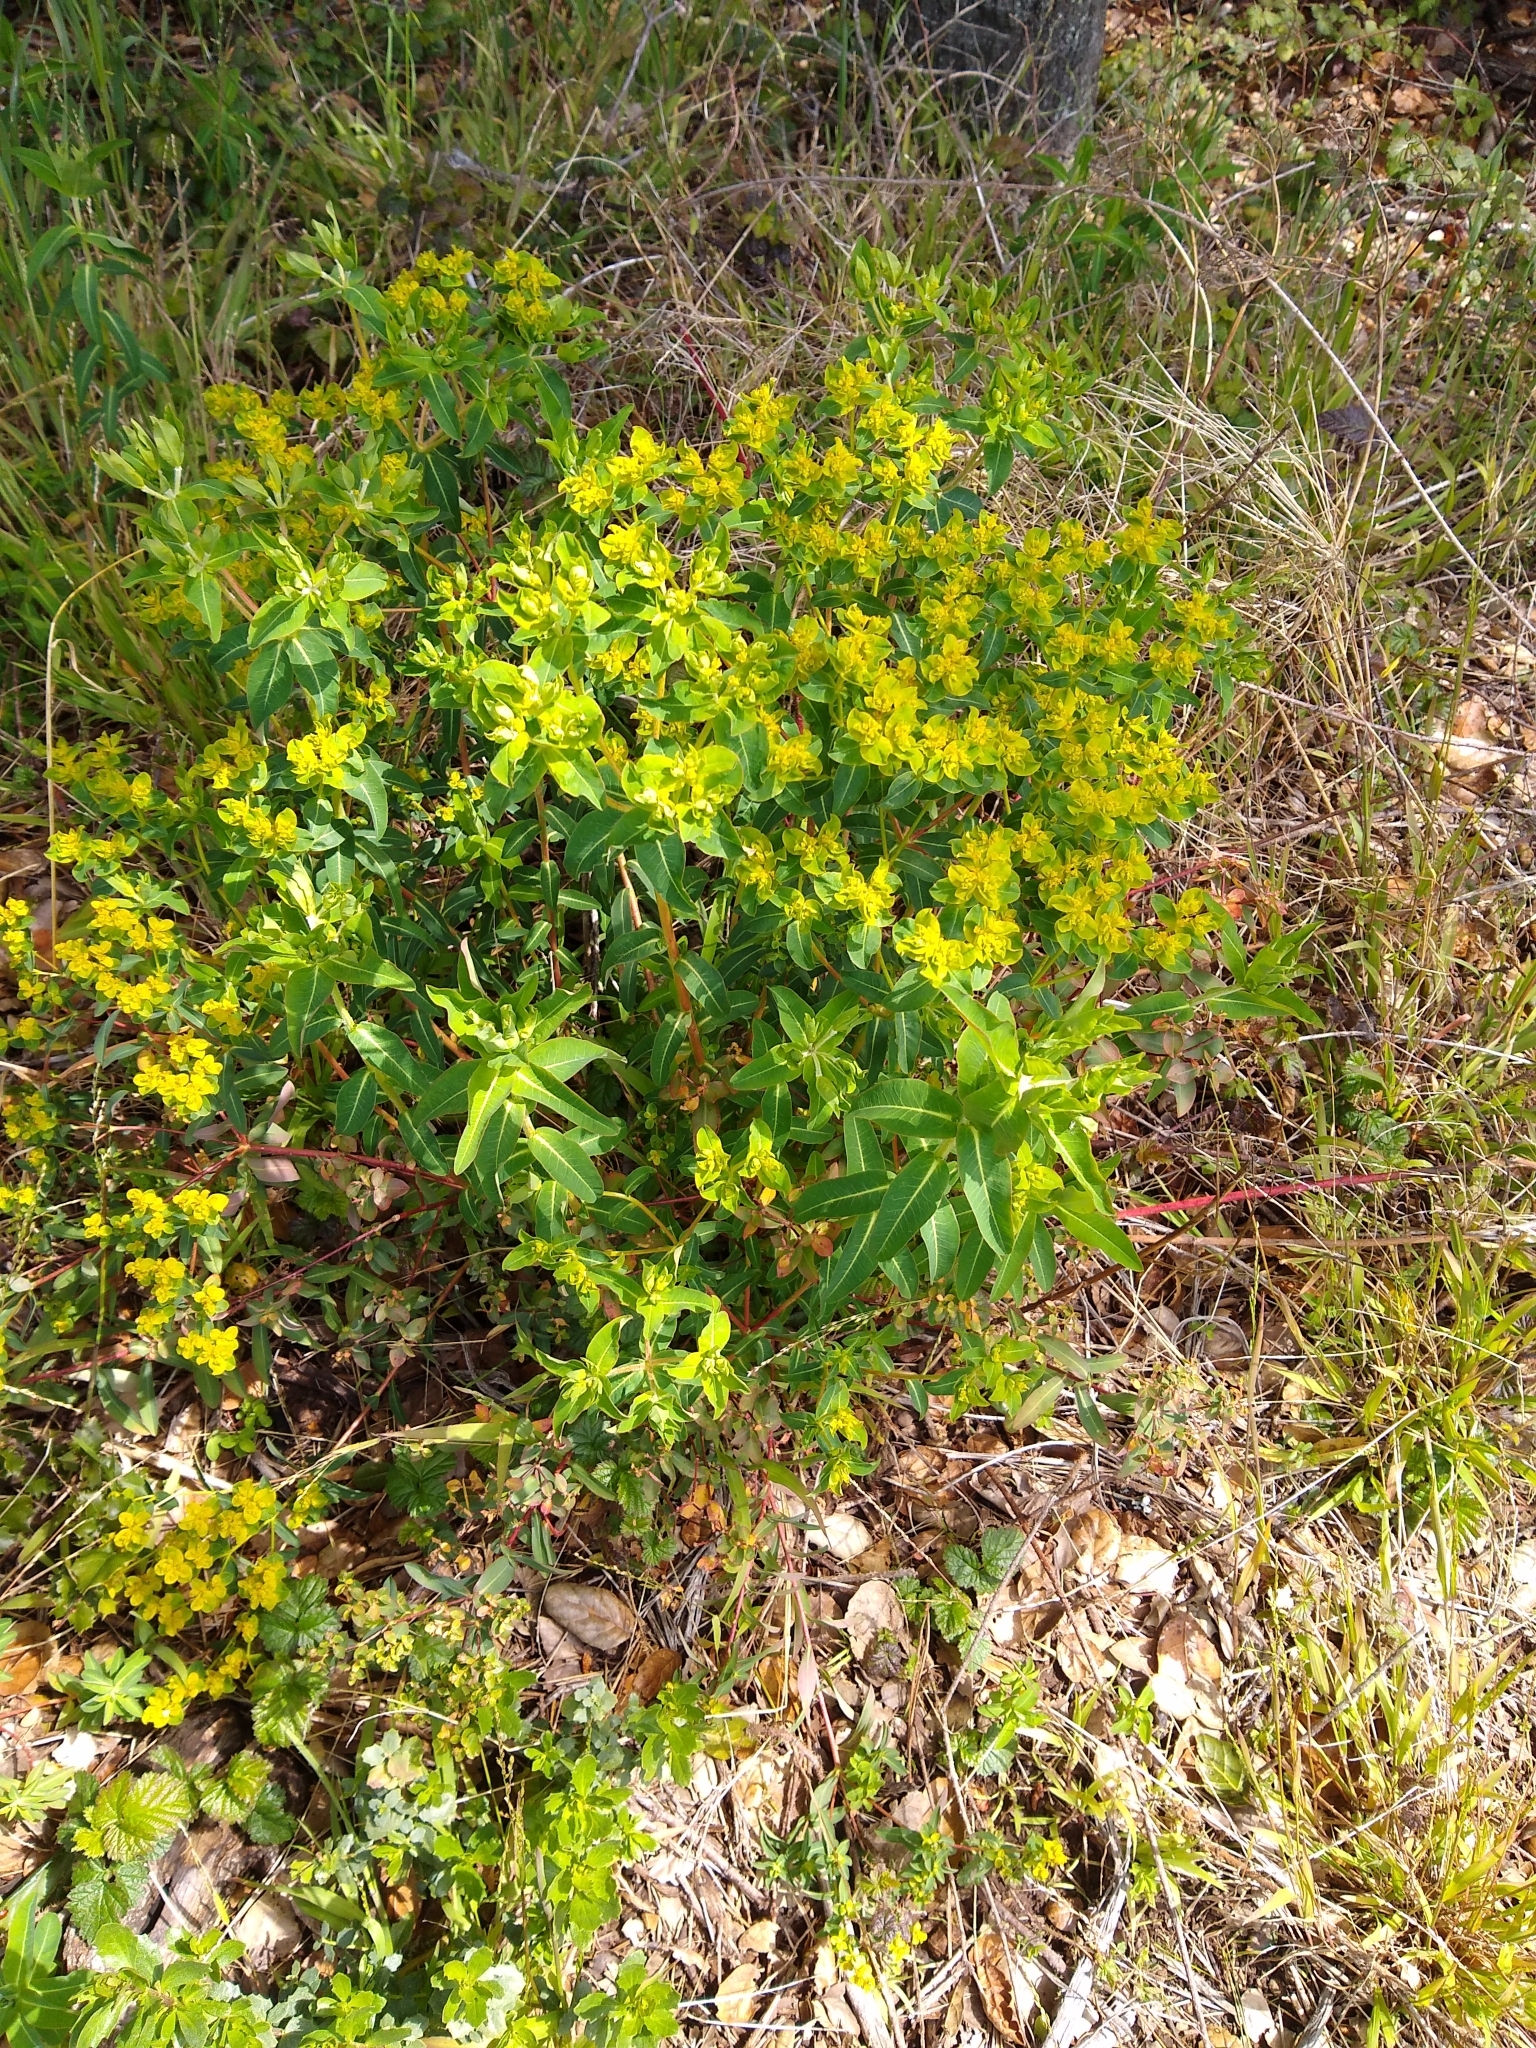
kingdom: Plantae
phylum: Tracheophyta
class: Magnoliopsida
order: Malpighiales
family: Euphorbiaceae
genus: Euphorbia
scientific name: Euphorbia oblongata
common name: Balkan spurge
